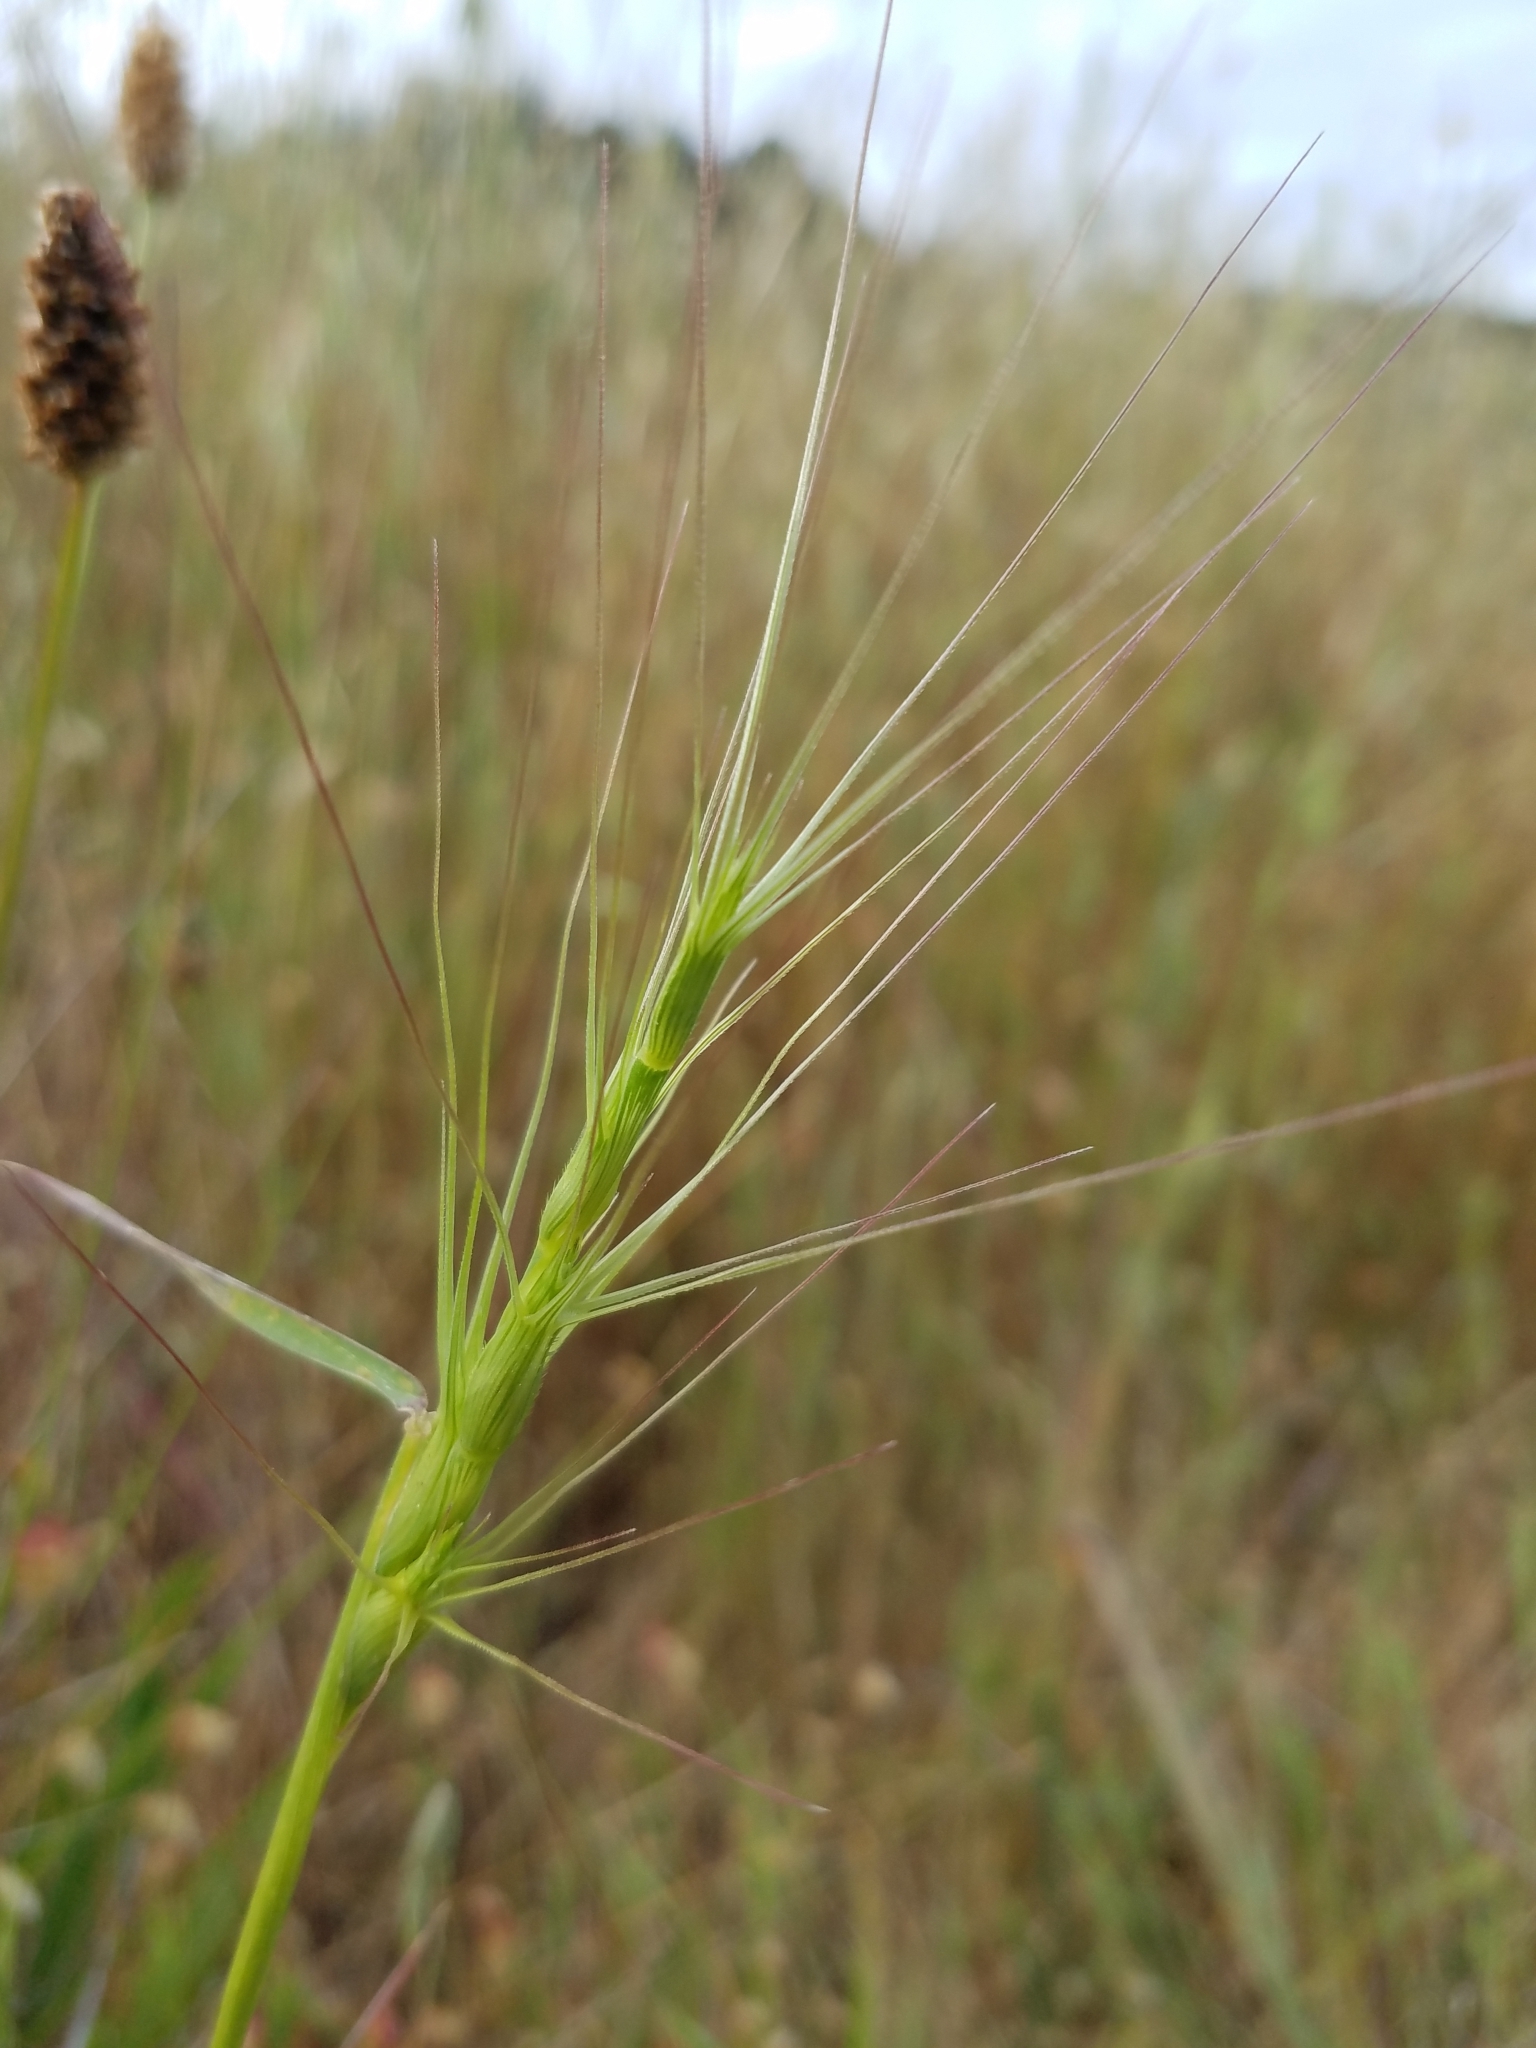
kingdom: Plantae
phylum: Tracheophyta
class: Liliopsida
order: Poales
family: Poaceae
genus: Aegilops
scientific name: Aegilops triuncialis
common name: Barb goat grass
